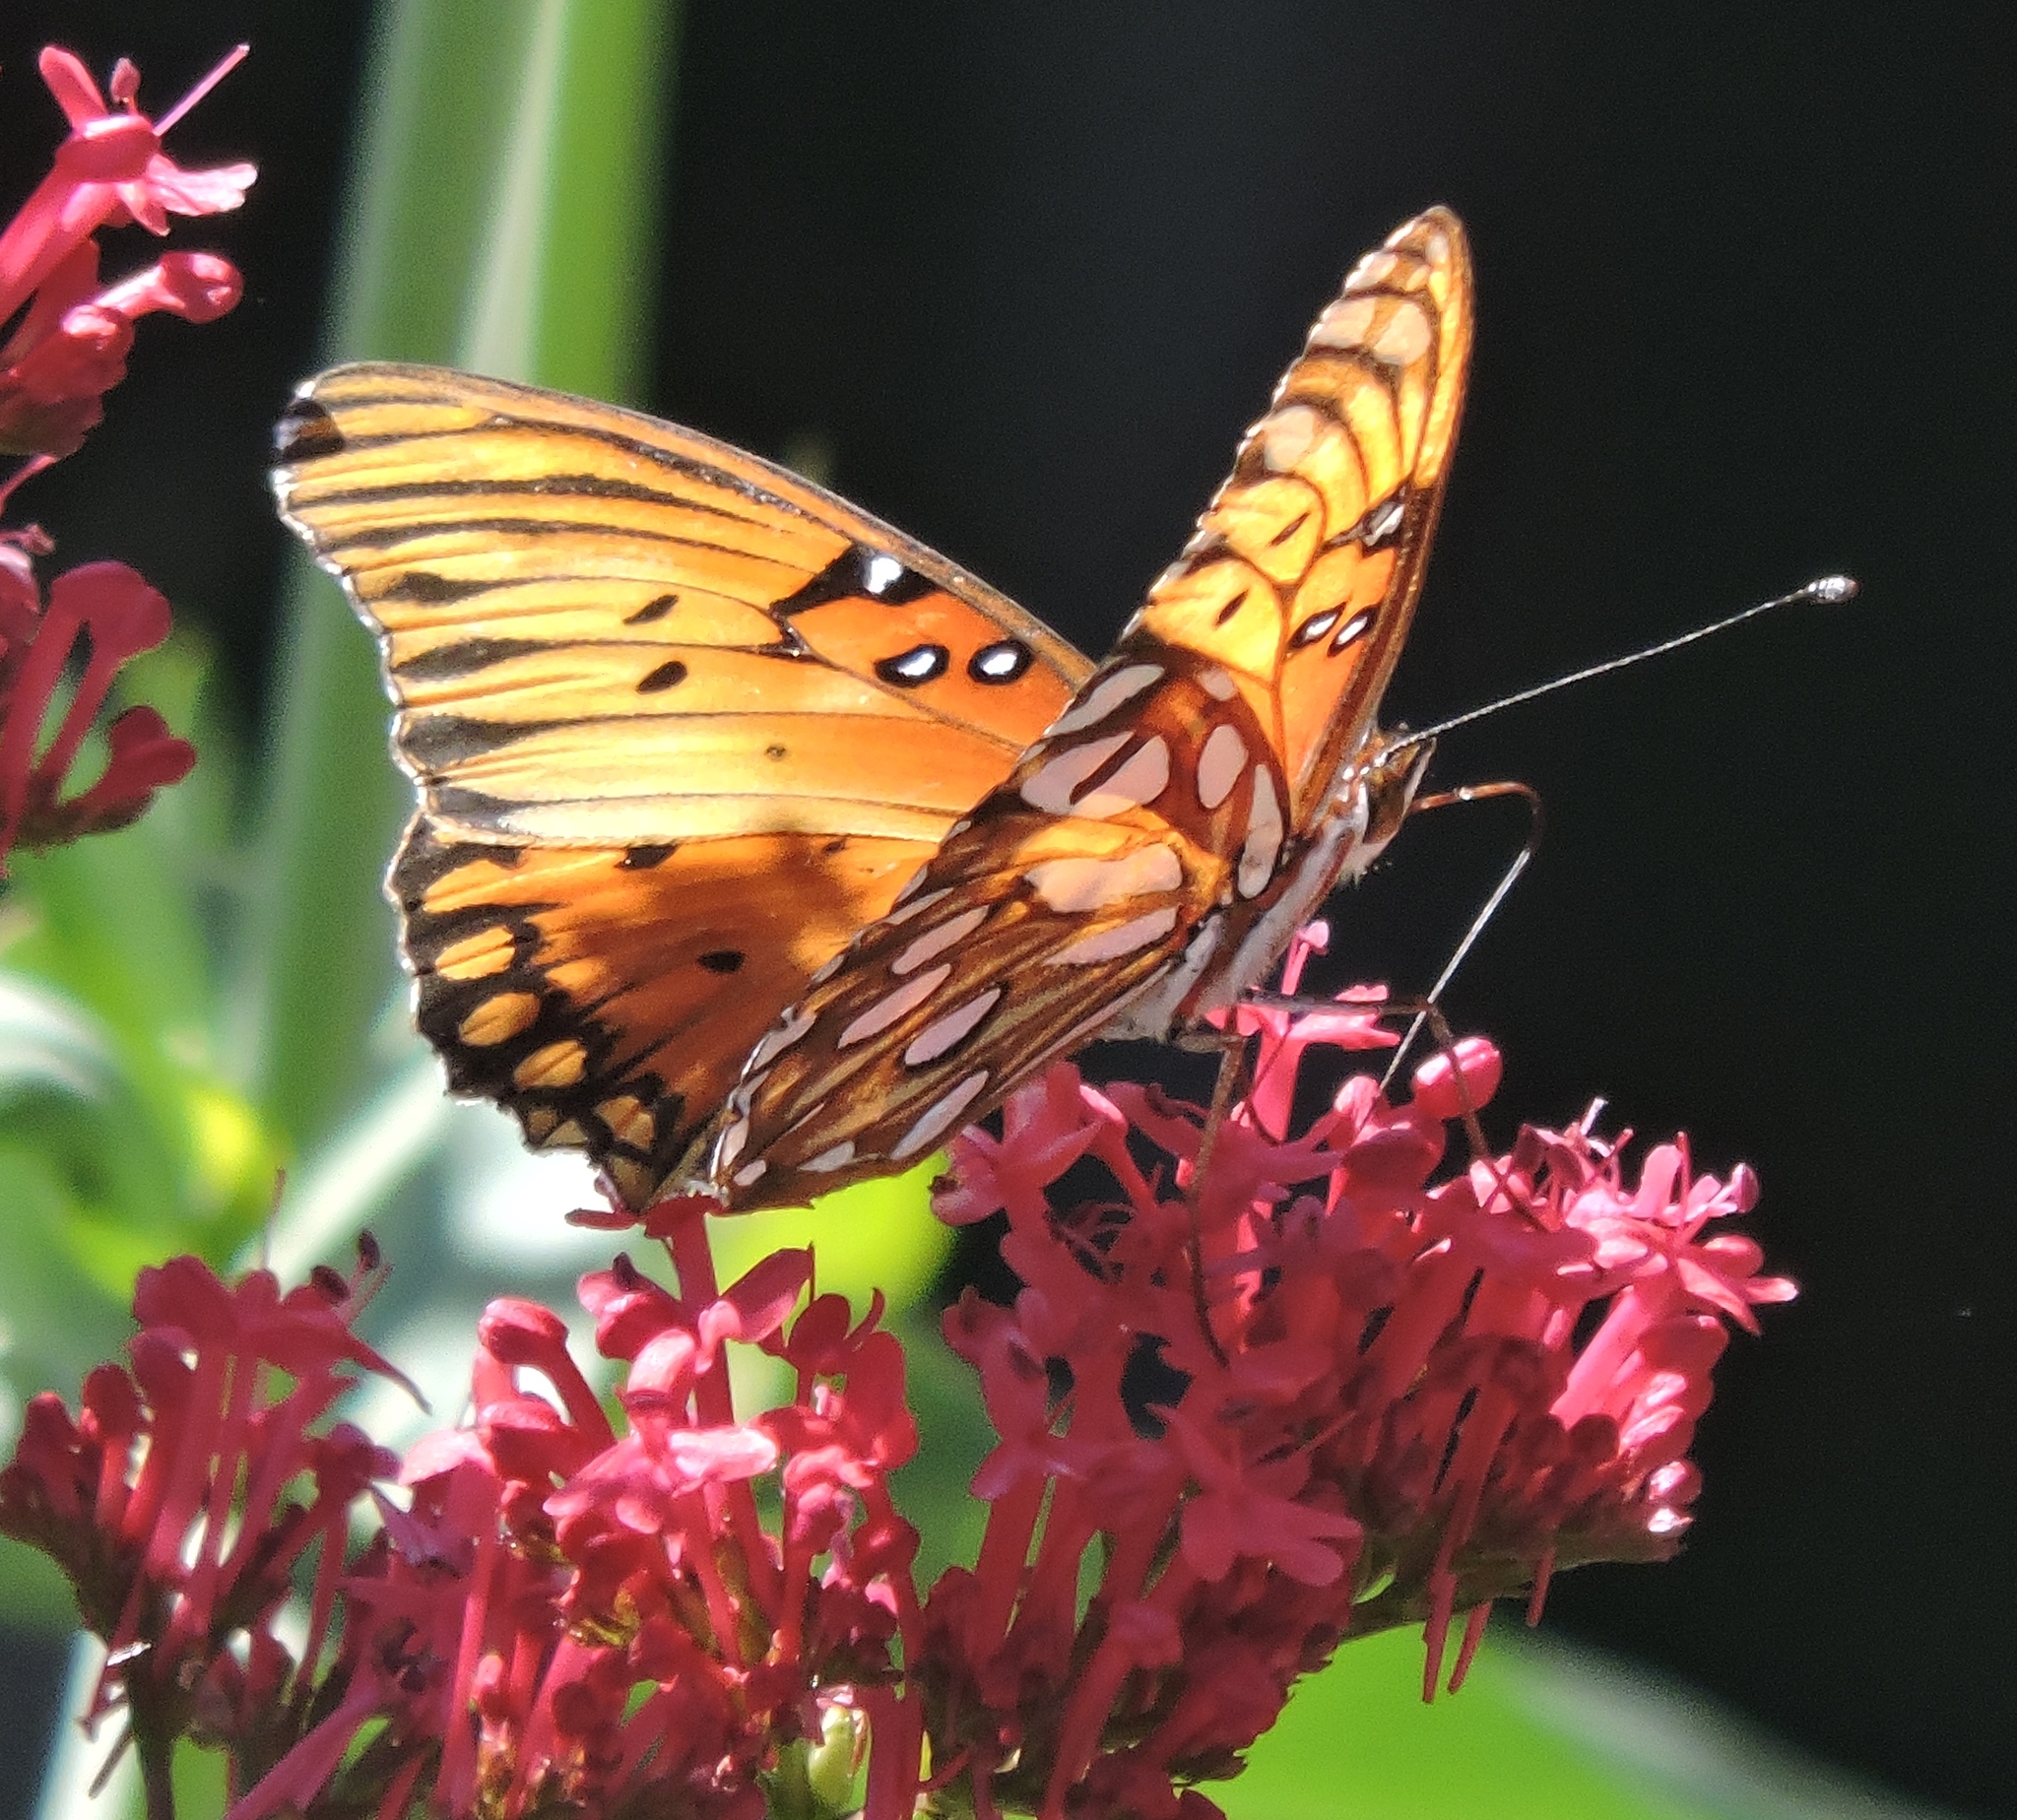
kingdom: Animalia
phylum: Arthropoda
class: Insecta
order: Lepidoptera
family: Nymphalidae
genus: Dione
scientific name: Dione vanillae
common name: Gulf fritillary
